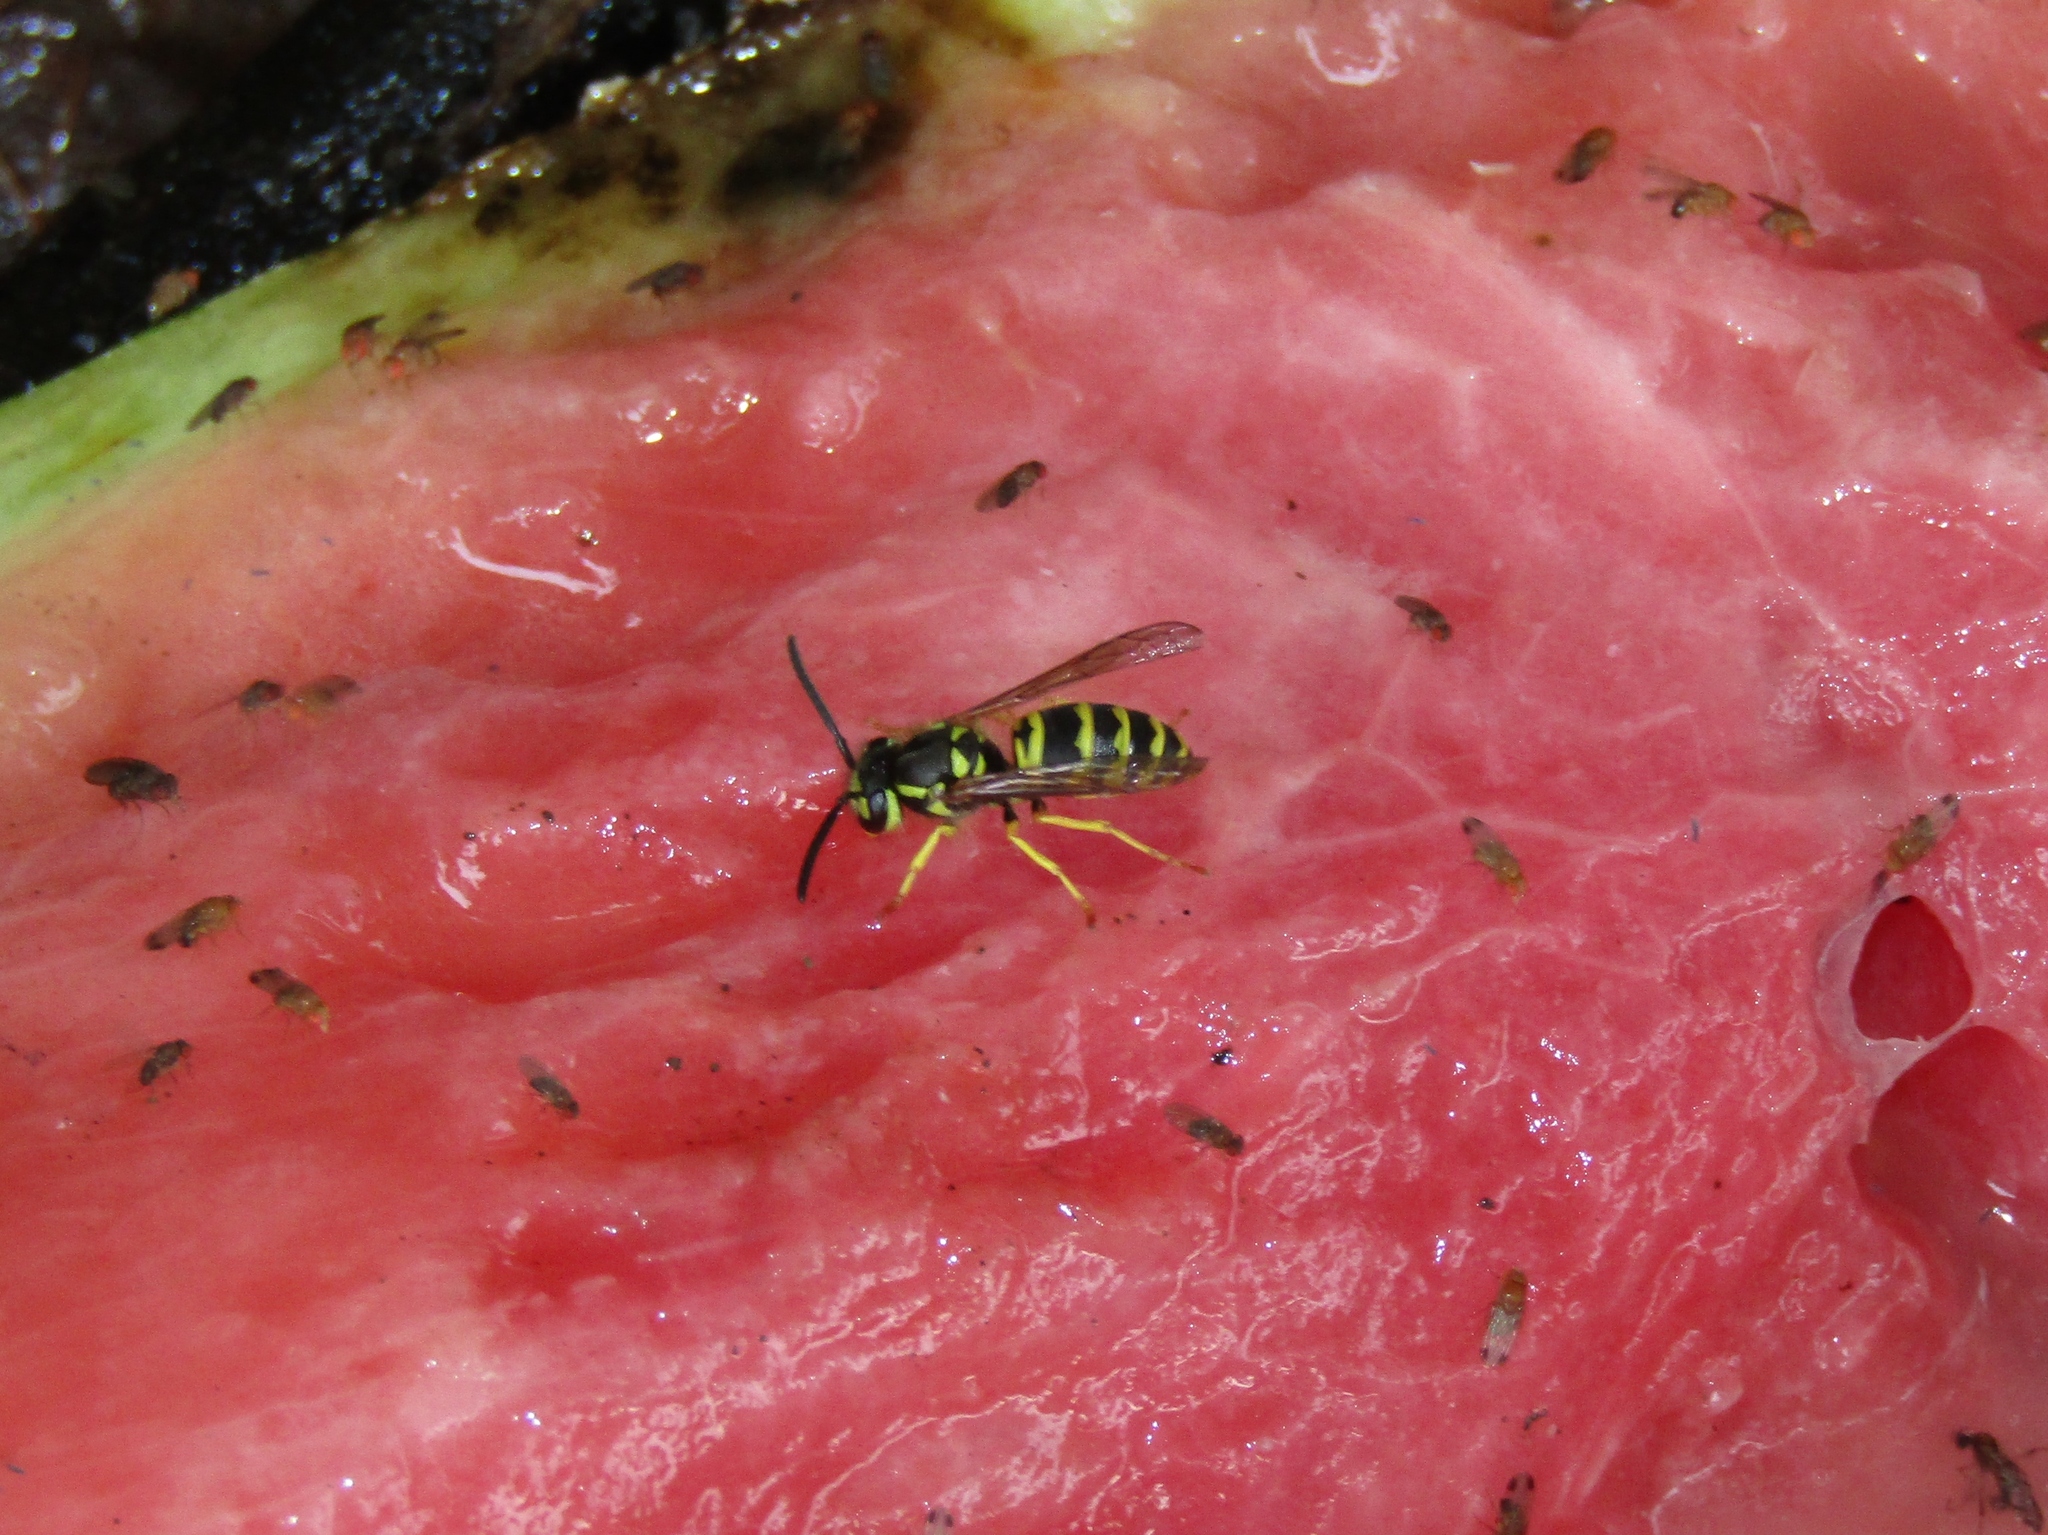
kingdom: Animalia
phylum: Arthropoda
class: Insecta
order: Hymenoptera
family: Vespidae
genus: Vespula
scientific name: Vespula maculifrons
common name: Eastern yellowjacket
